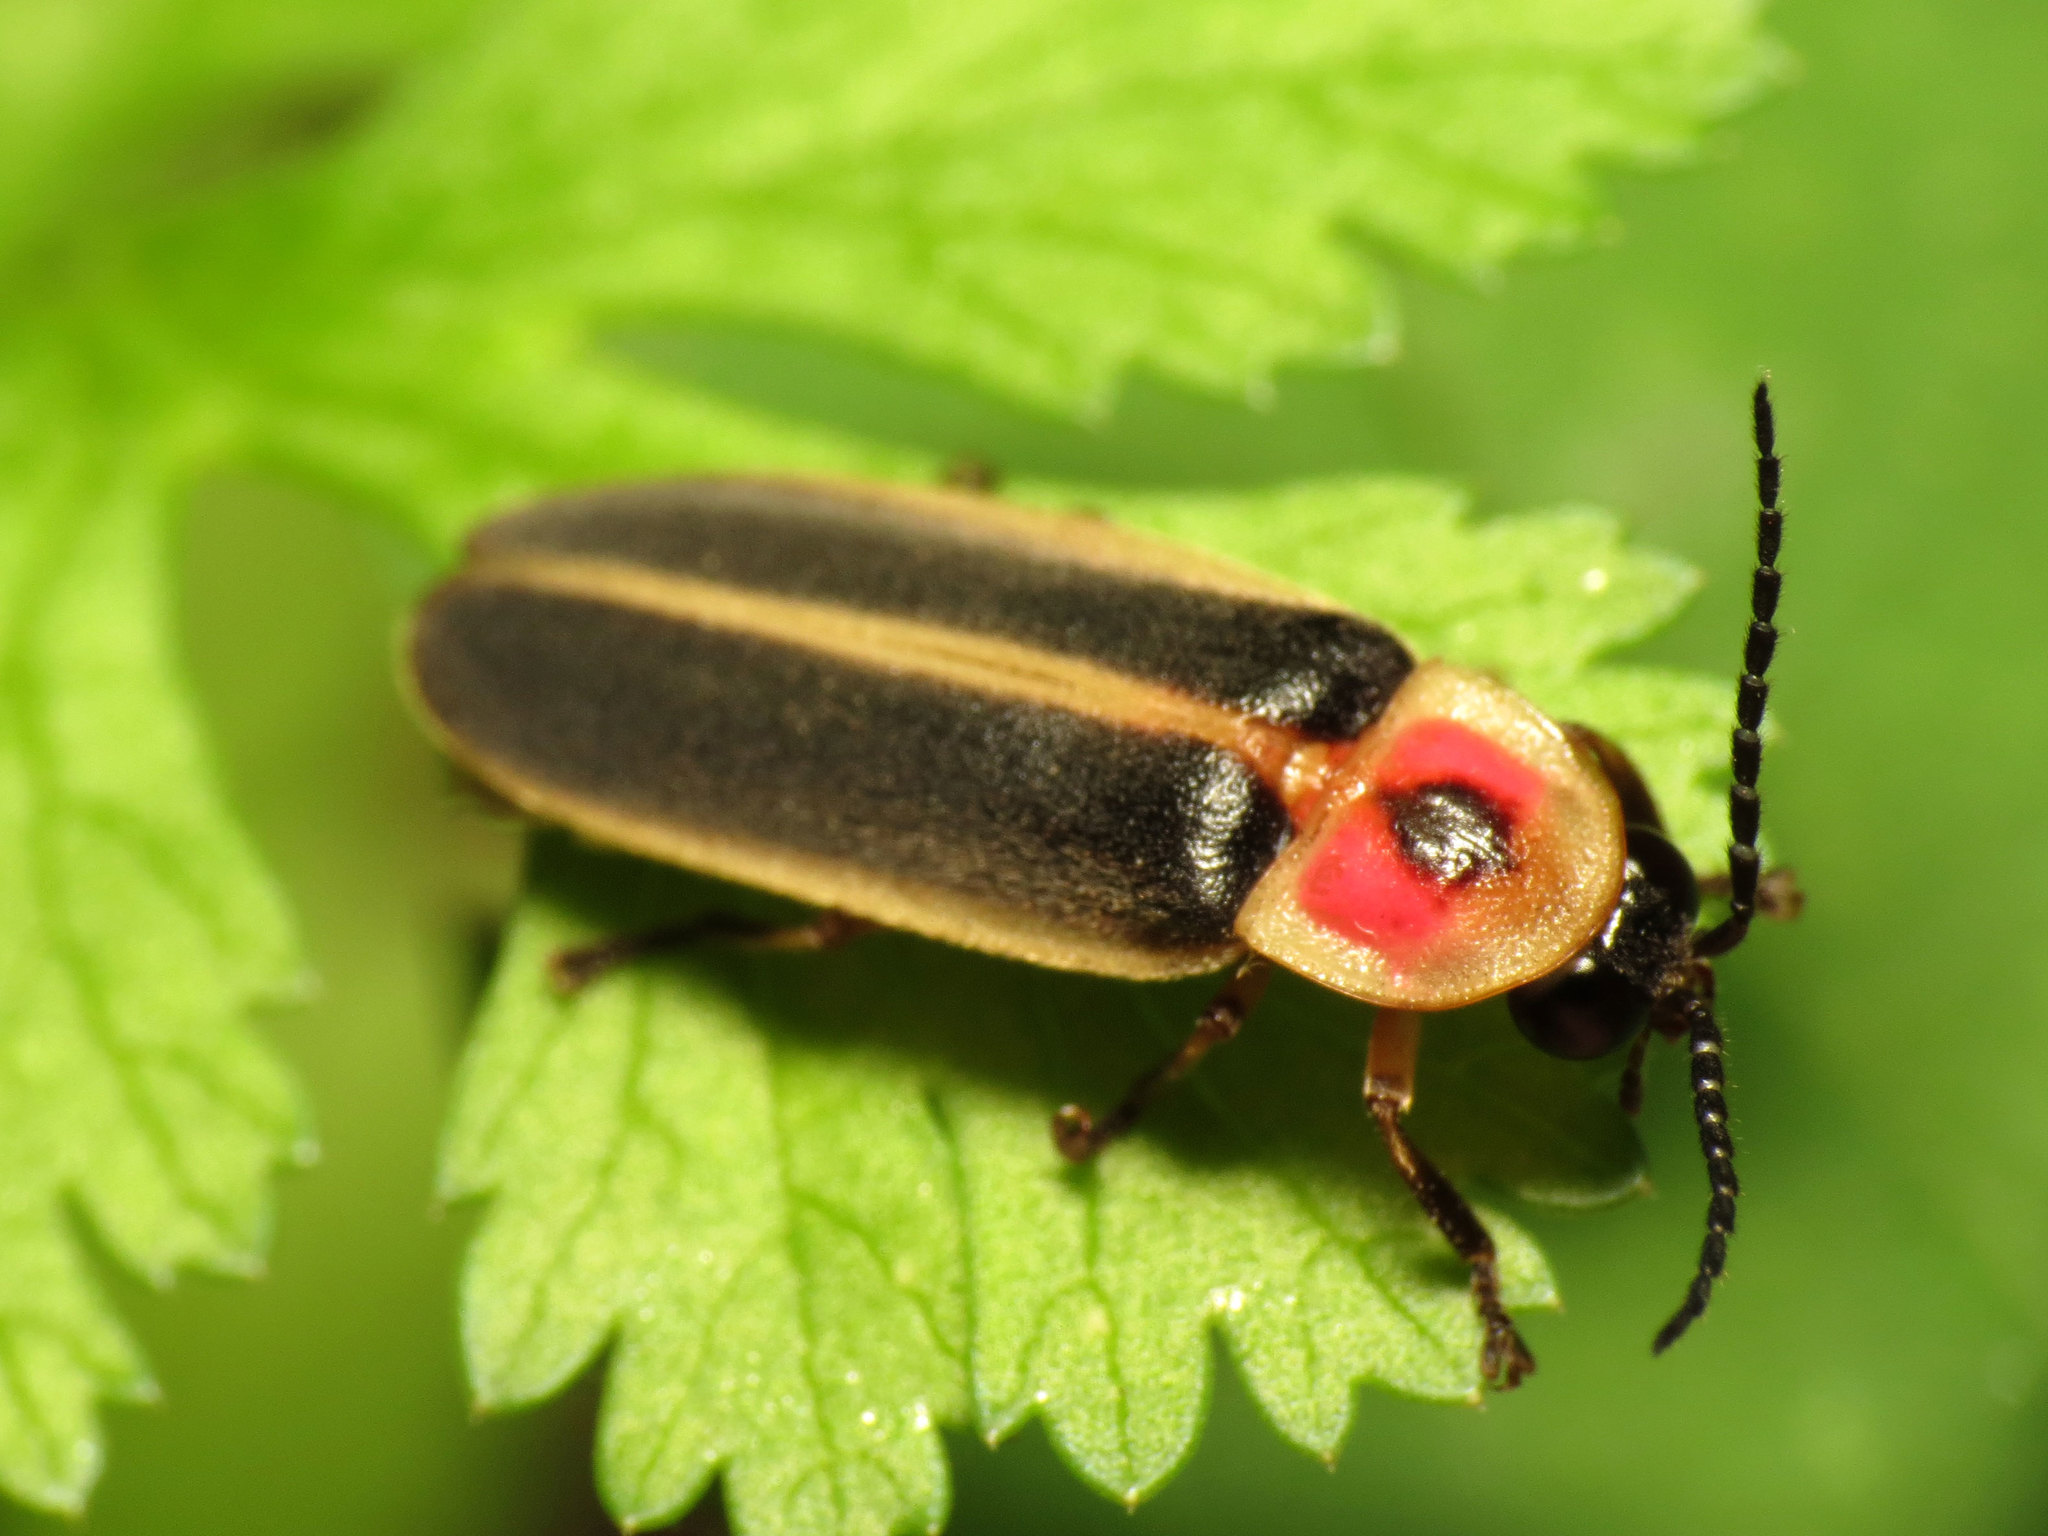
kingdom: Animalia
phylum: Arthropoda
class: Insecta
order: Coleoptera
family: Lampyridae
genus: Photinus
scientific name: Photinus pyralis
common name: Big dipper firefly
